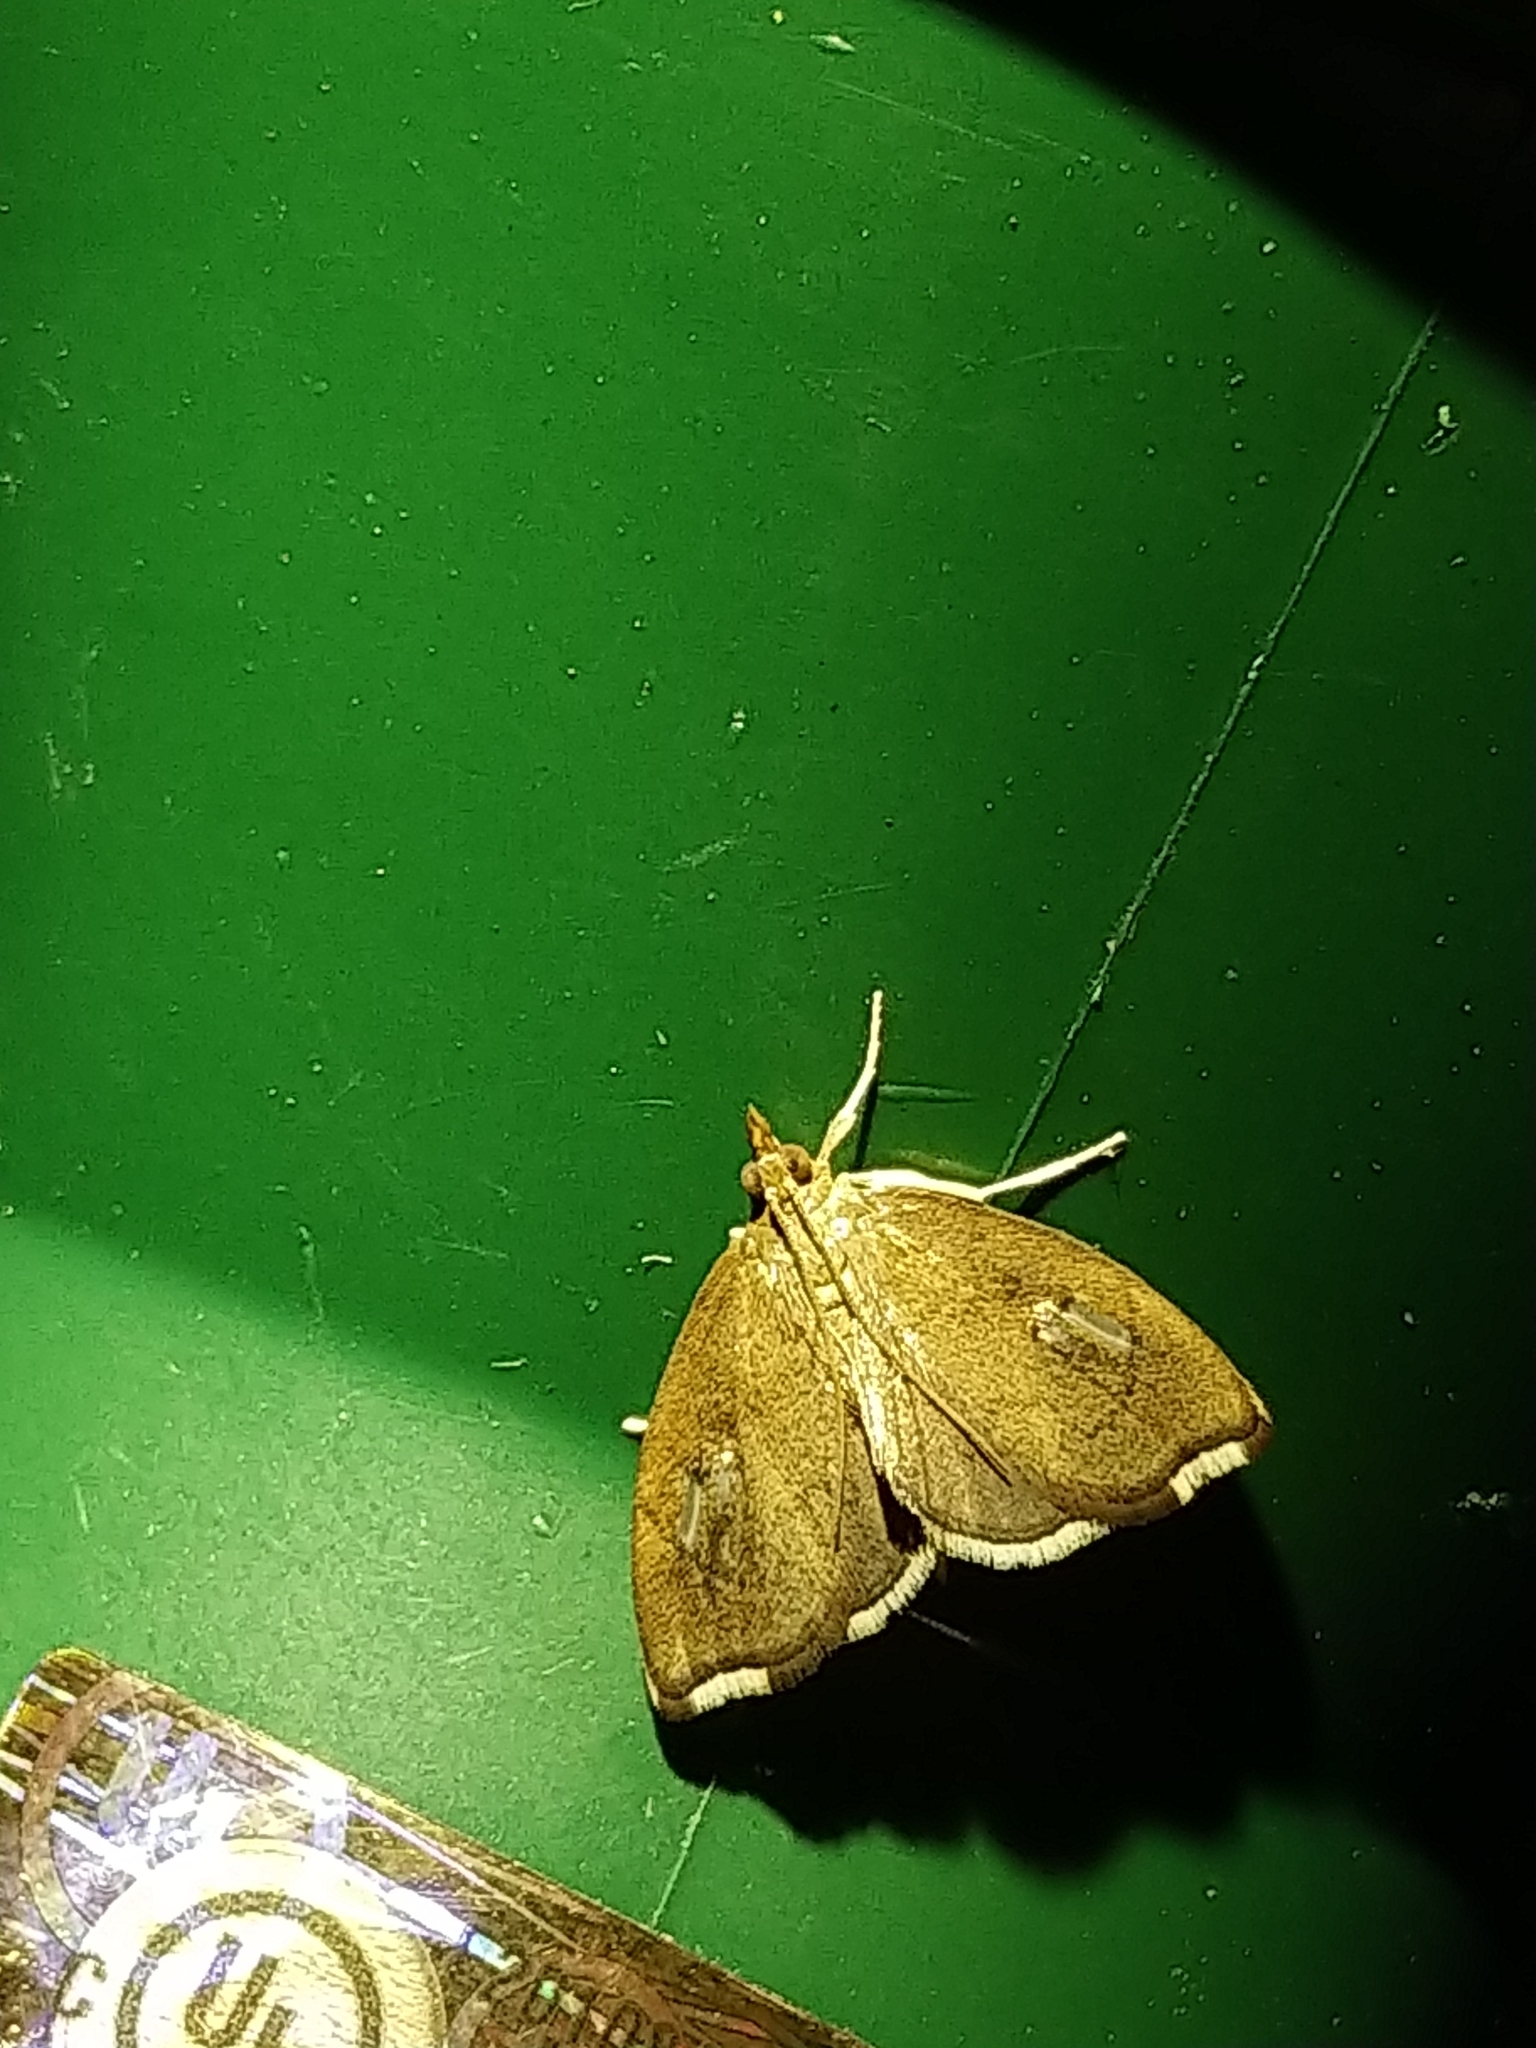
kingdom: Animalia
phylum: Arthropoda
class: Insecta
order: Lepidoptera
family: Crambidae
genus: Perispasta
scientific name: Perispasta caeculalis
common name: Titian peale's moth
